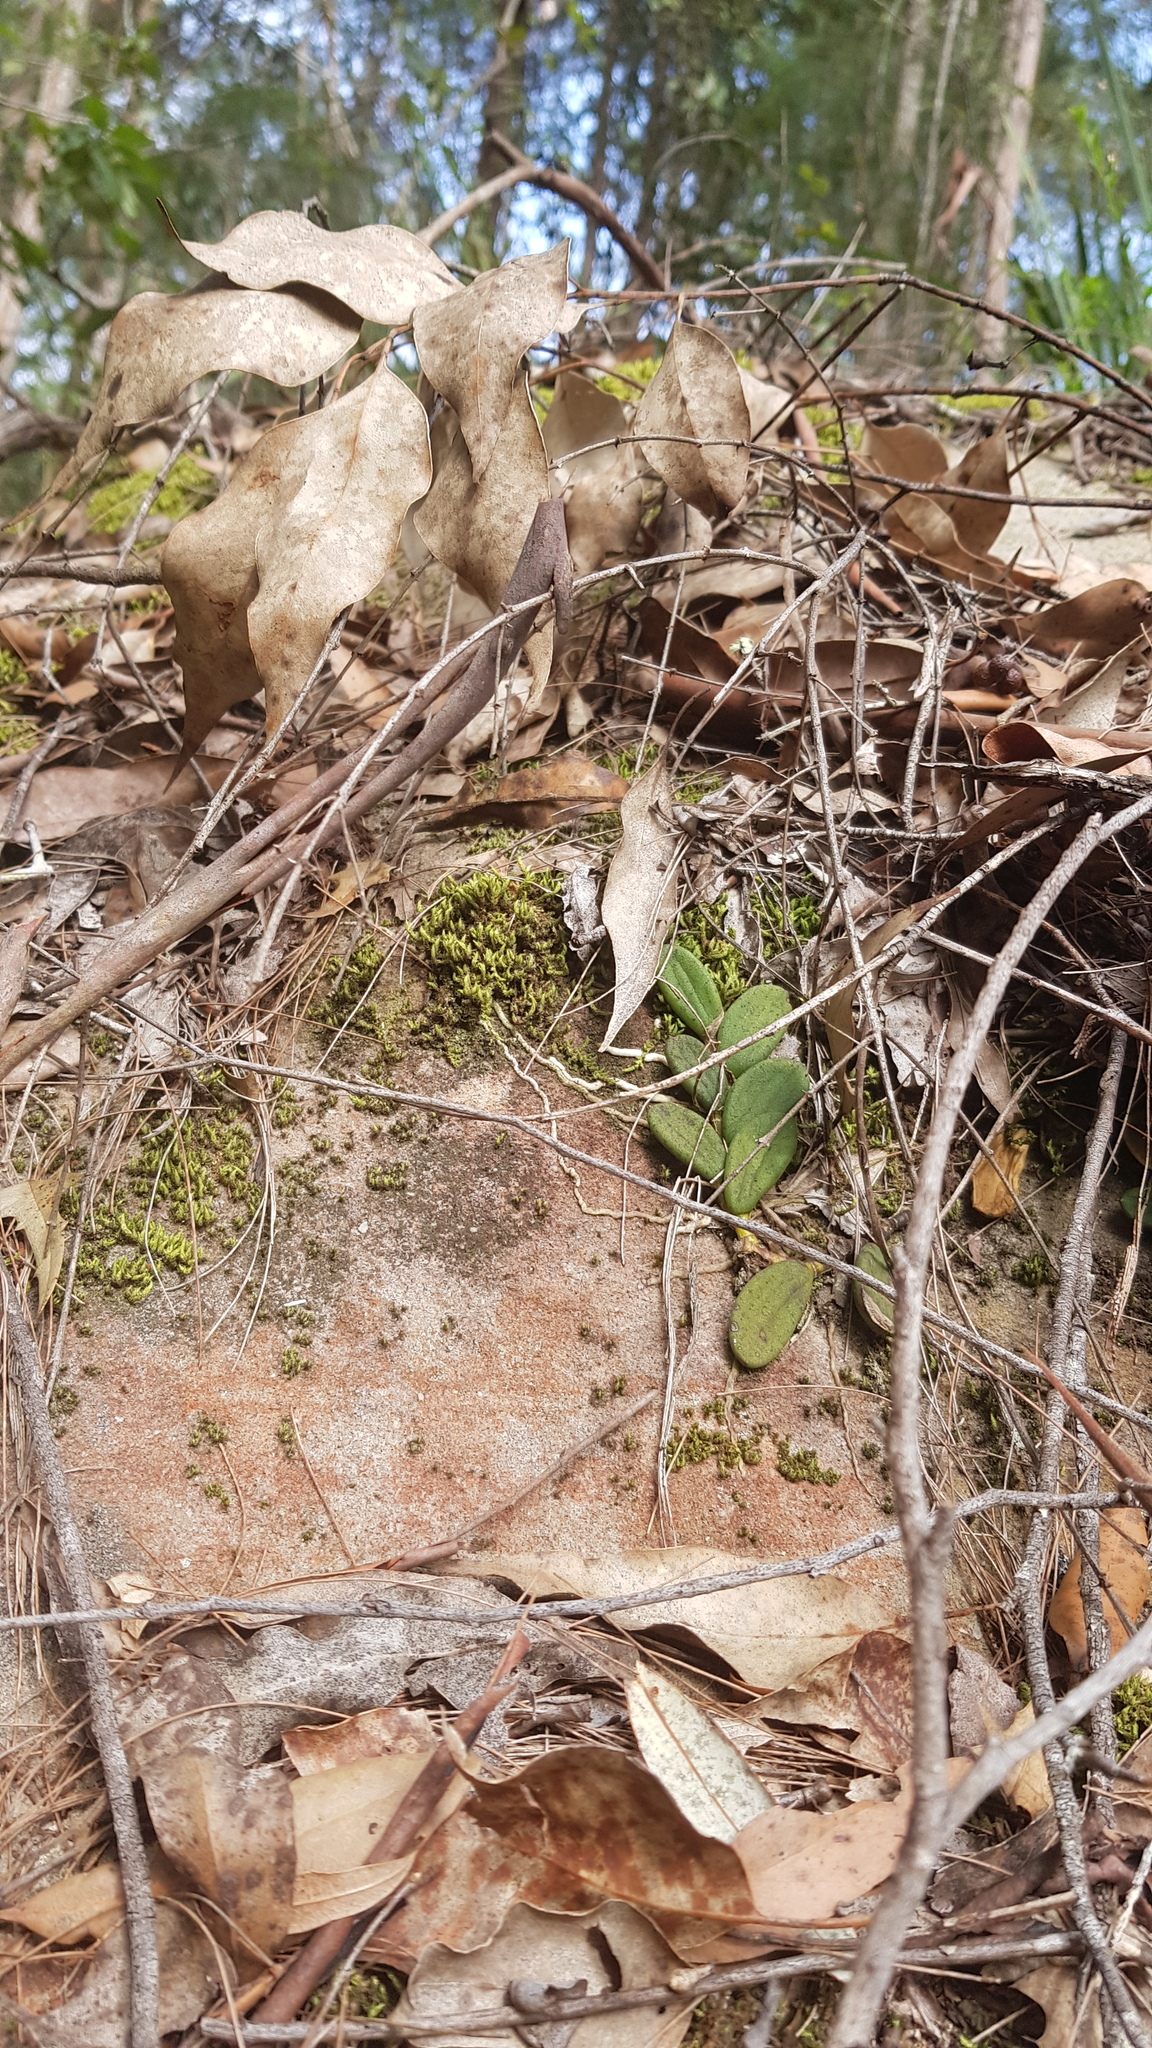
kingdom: Plantae
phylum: Tracheophyta
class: Liliopsida
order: Asparagales
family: Orchidaceae
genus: Dendrobium
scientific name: Dendrobium linguiforme
